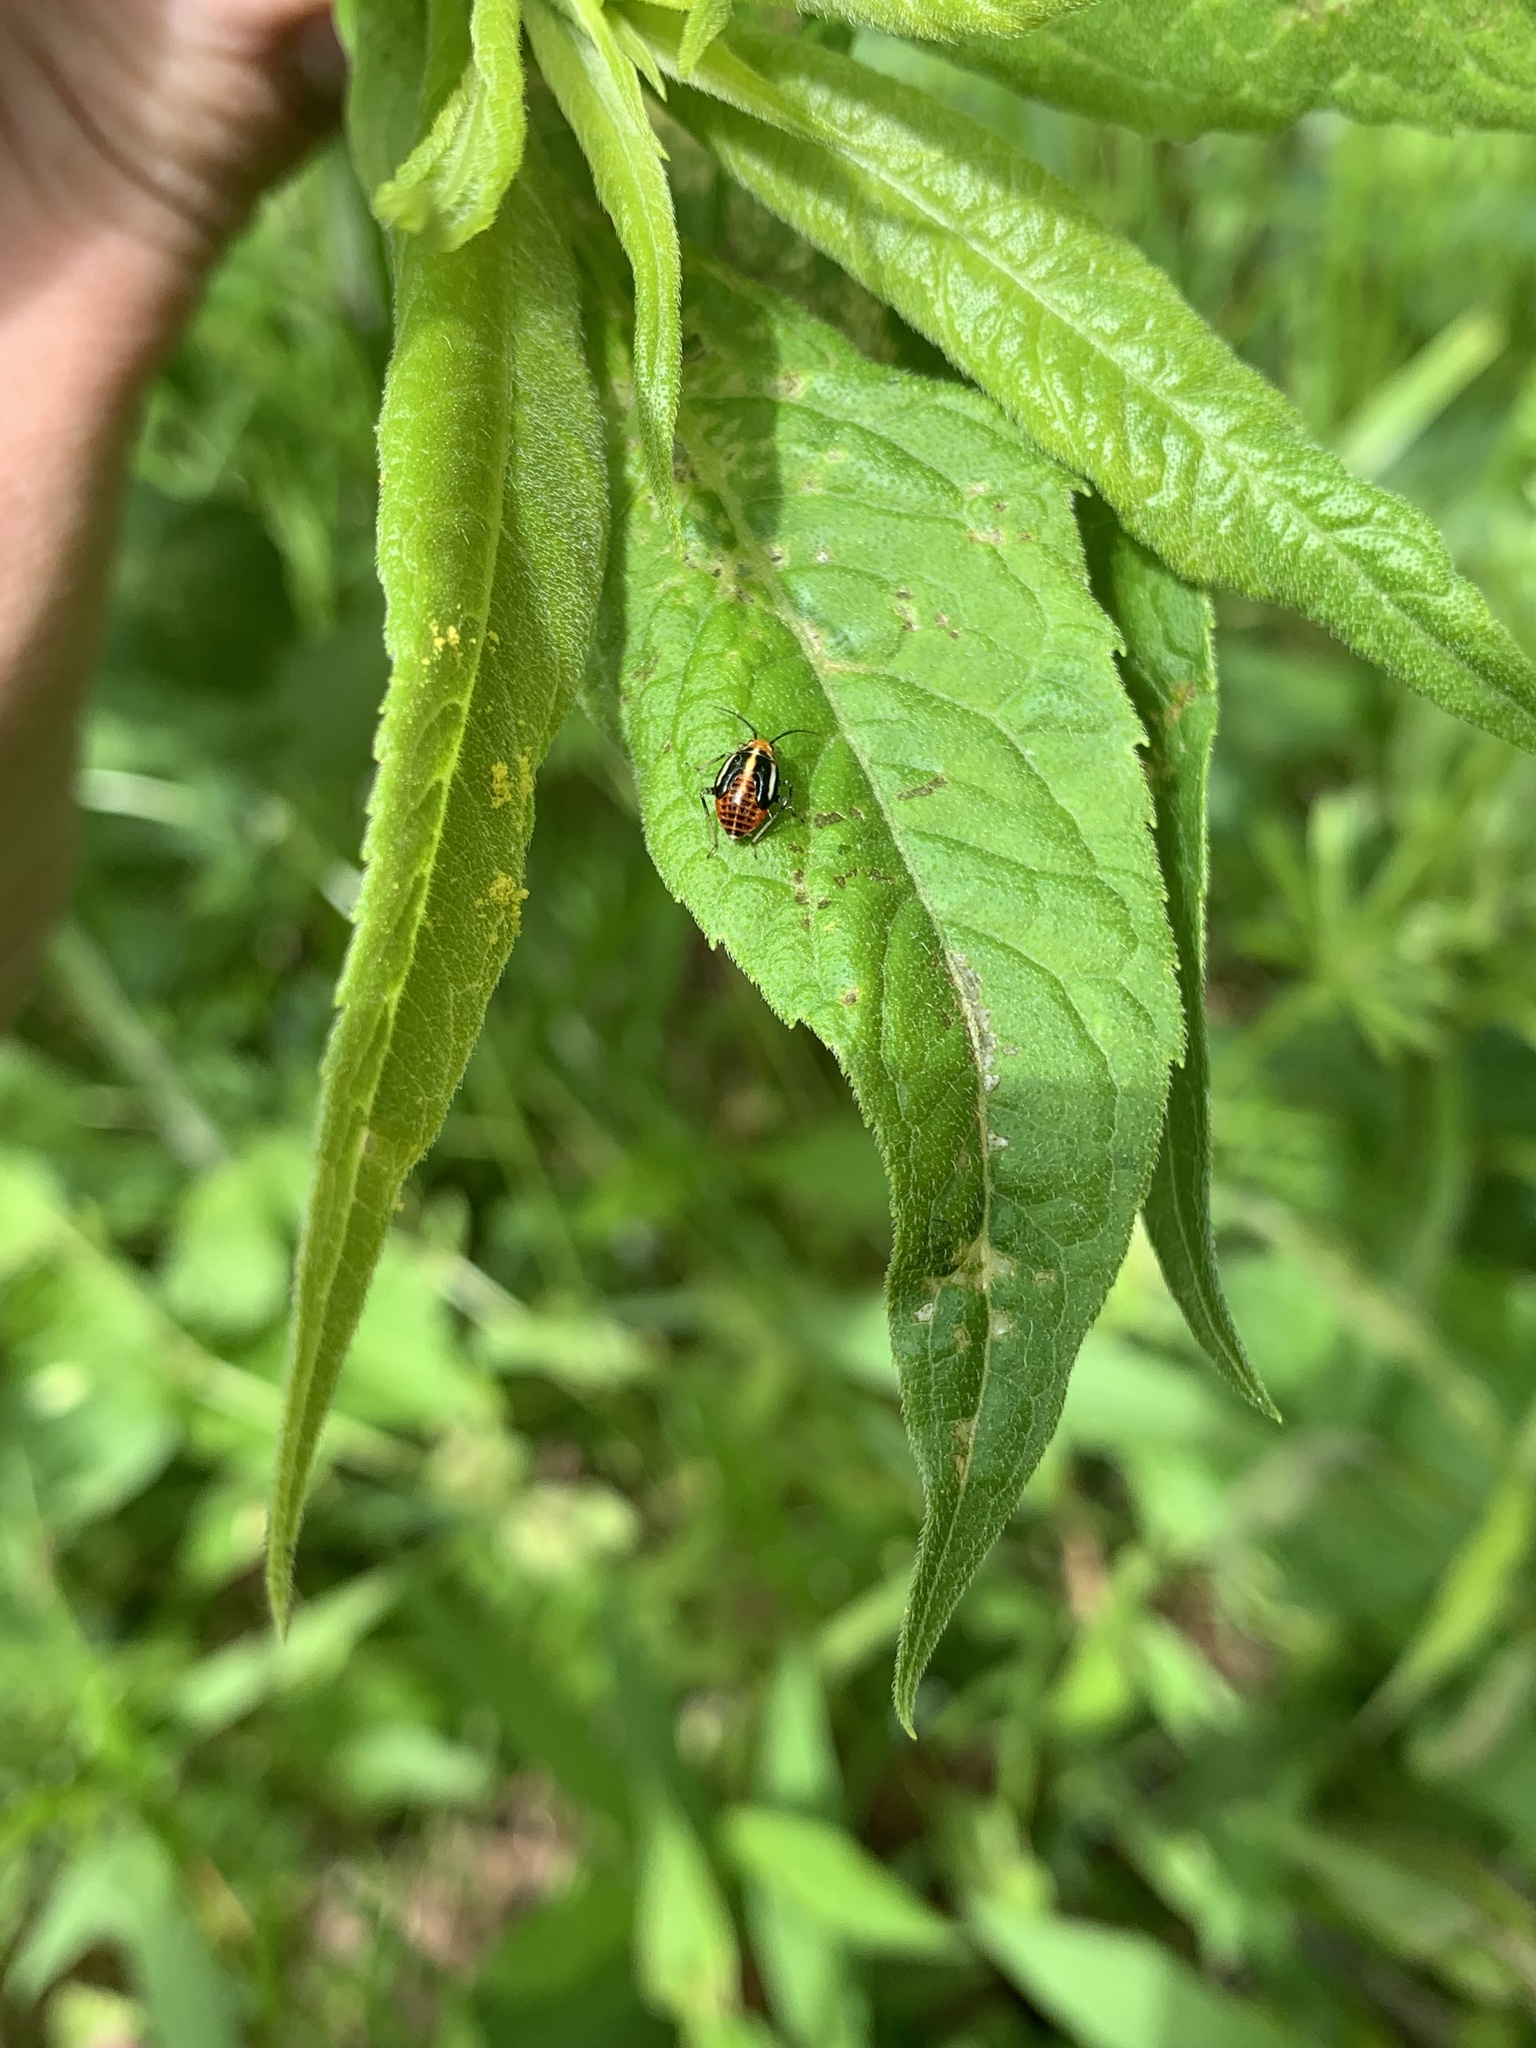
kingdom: Animalia
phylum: Arthropoda
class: Insecta
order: Hemiptera
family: Miridae
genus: Poecilocapsus
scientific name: Poecilocapsus lineatus
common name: Four-lined plant bug
